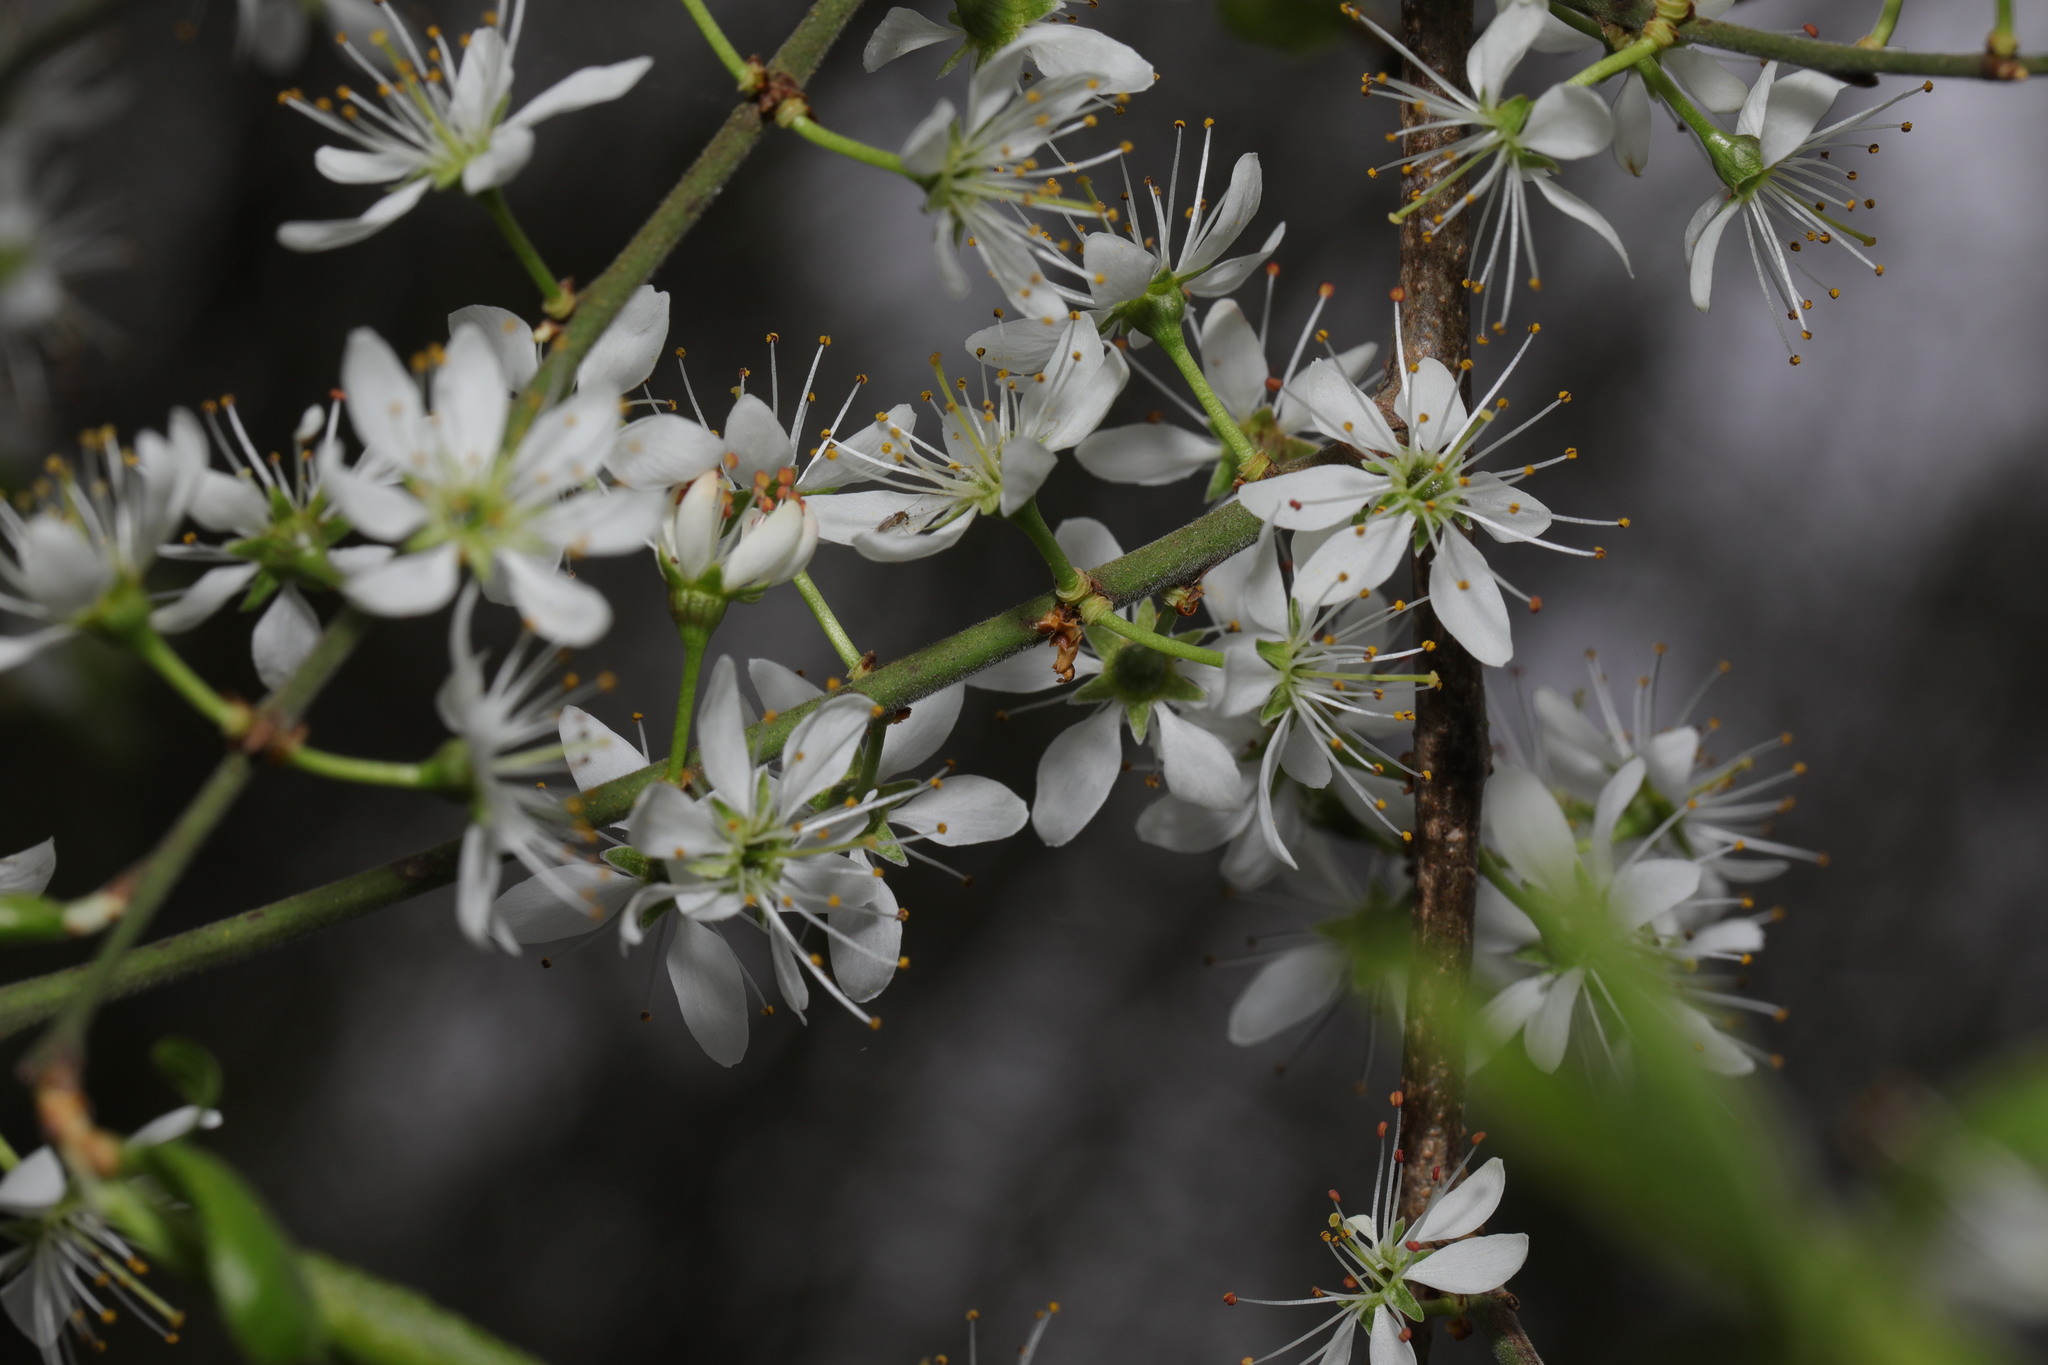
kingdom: Plantae
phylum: Tracheophyta
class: Magnoliopsida
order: Rosales
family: Rosaceae
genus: Prunus
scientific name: Prunus cerasifera
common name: Cherry plum
